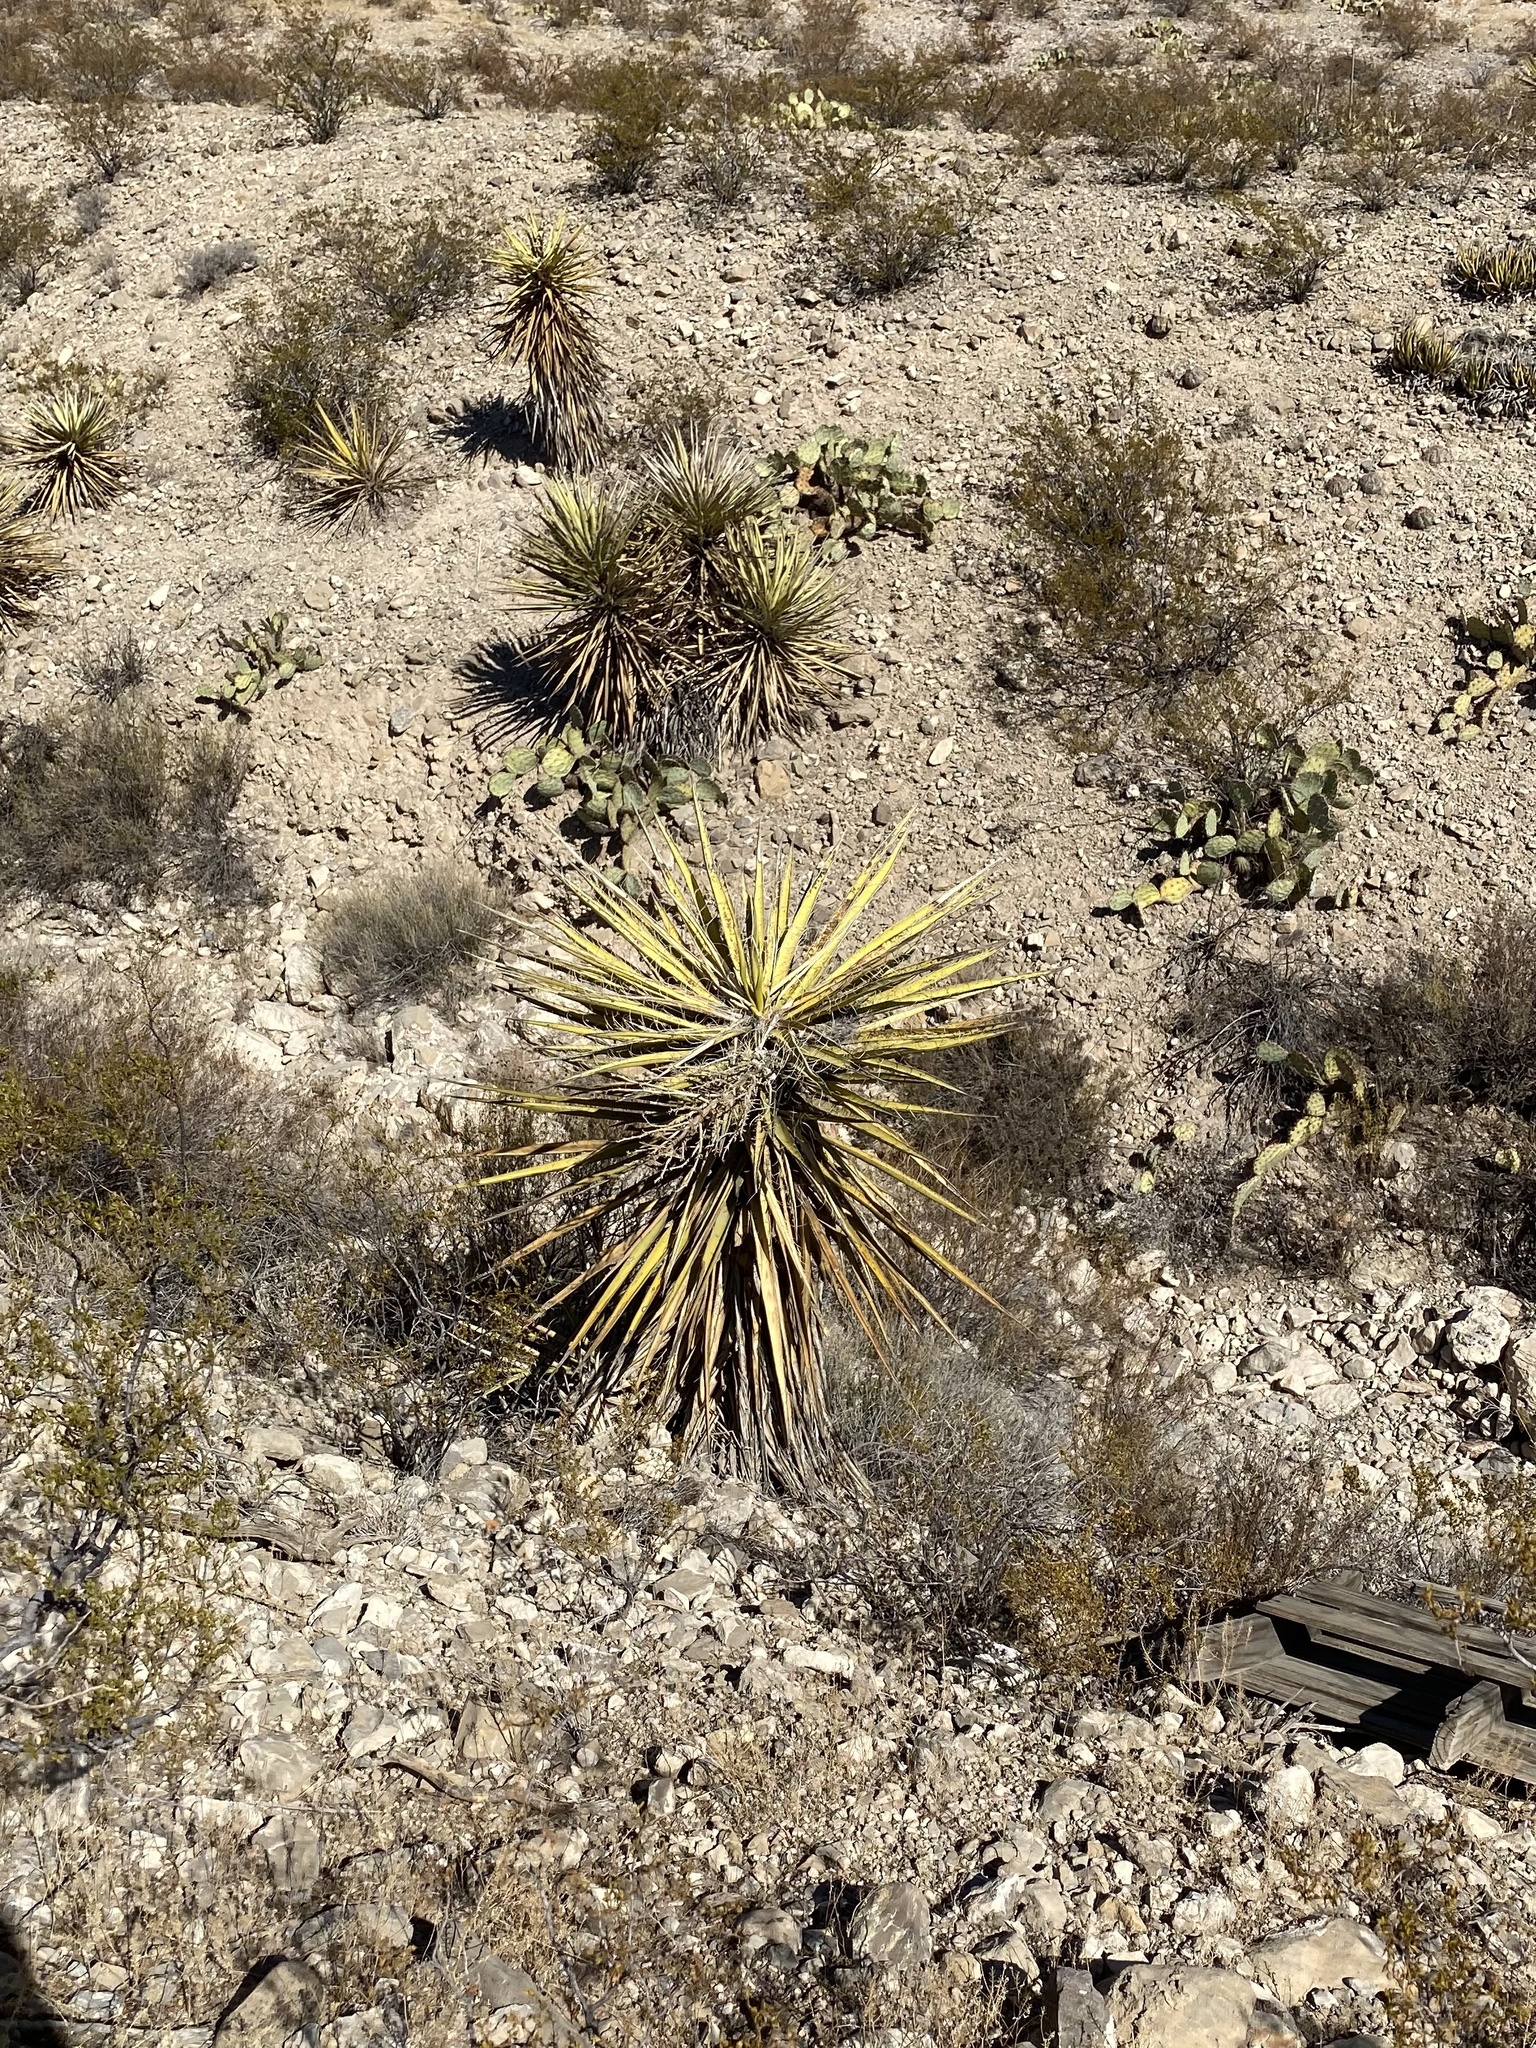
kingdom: Plantae
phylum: Tracheophyta
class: Liliopsida
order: Asparagales
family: Asparagaceae
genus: Yucca
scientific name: Yucca treculiana
